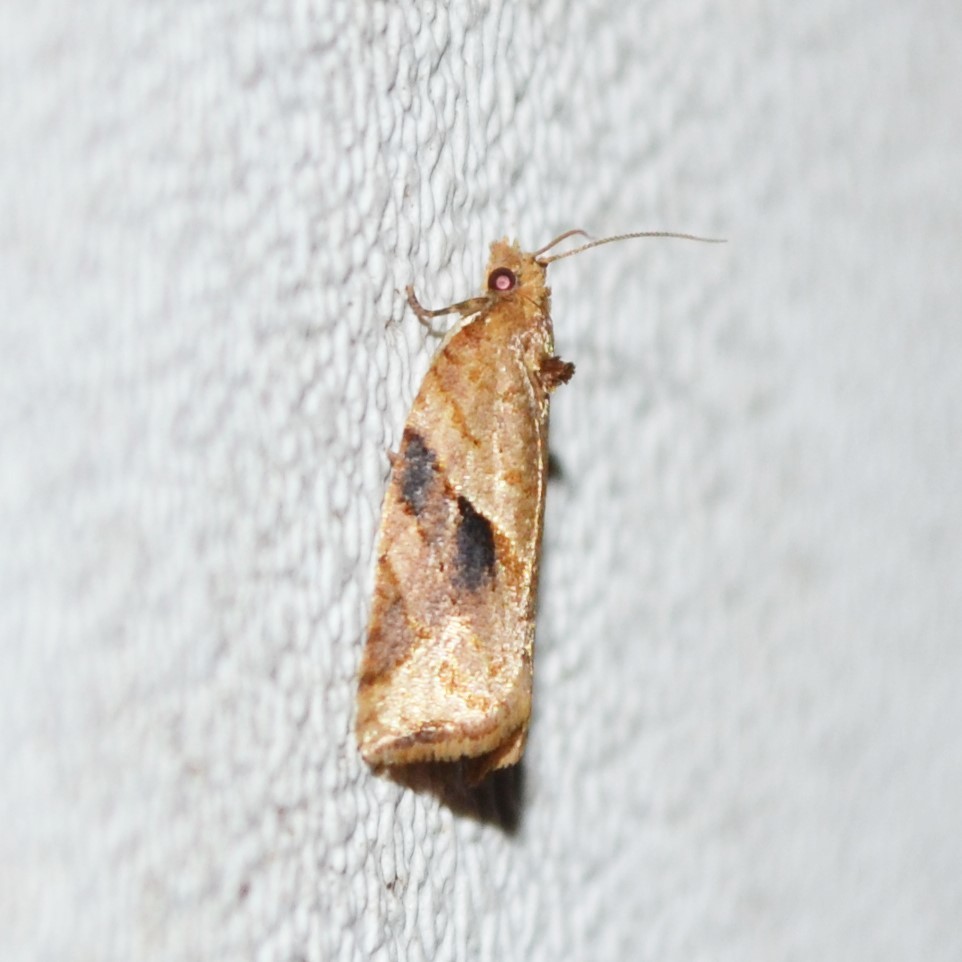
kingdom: Animalia
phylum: Arthropoda
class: Insecta
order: Lepidoptera
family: Tortricidae
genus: Argyrotaenia
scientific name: Argyrotaenia ivana
